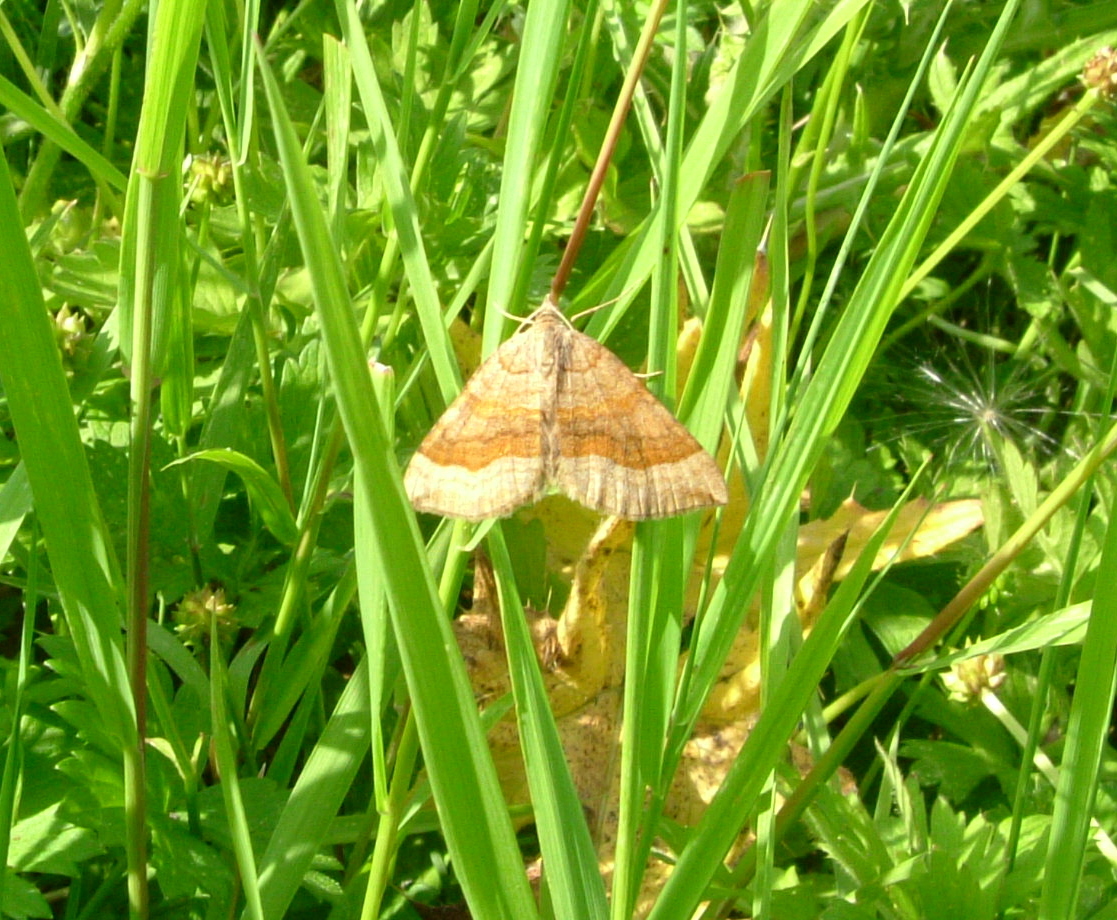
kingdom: Animalia
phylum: Arthropoda
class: Insecta
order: Lepidoptera
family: Geometridae
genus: Scotopteryx
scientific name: Scotopteryx chenopodiata
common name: Shaded broad-bar
